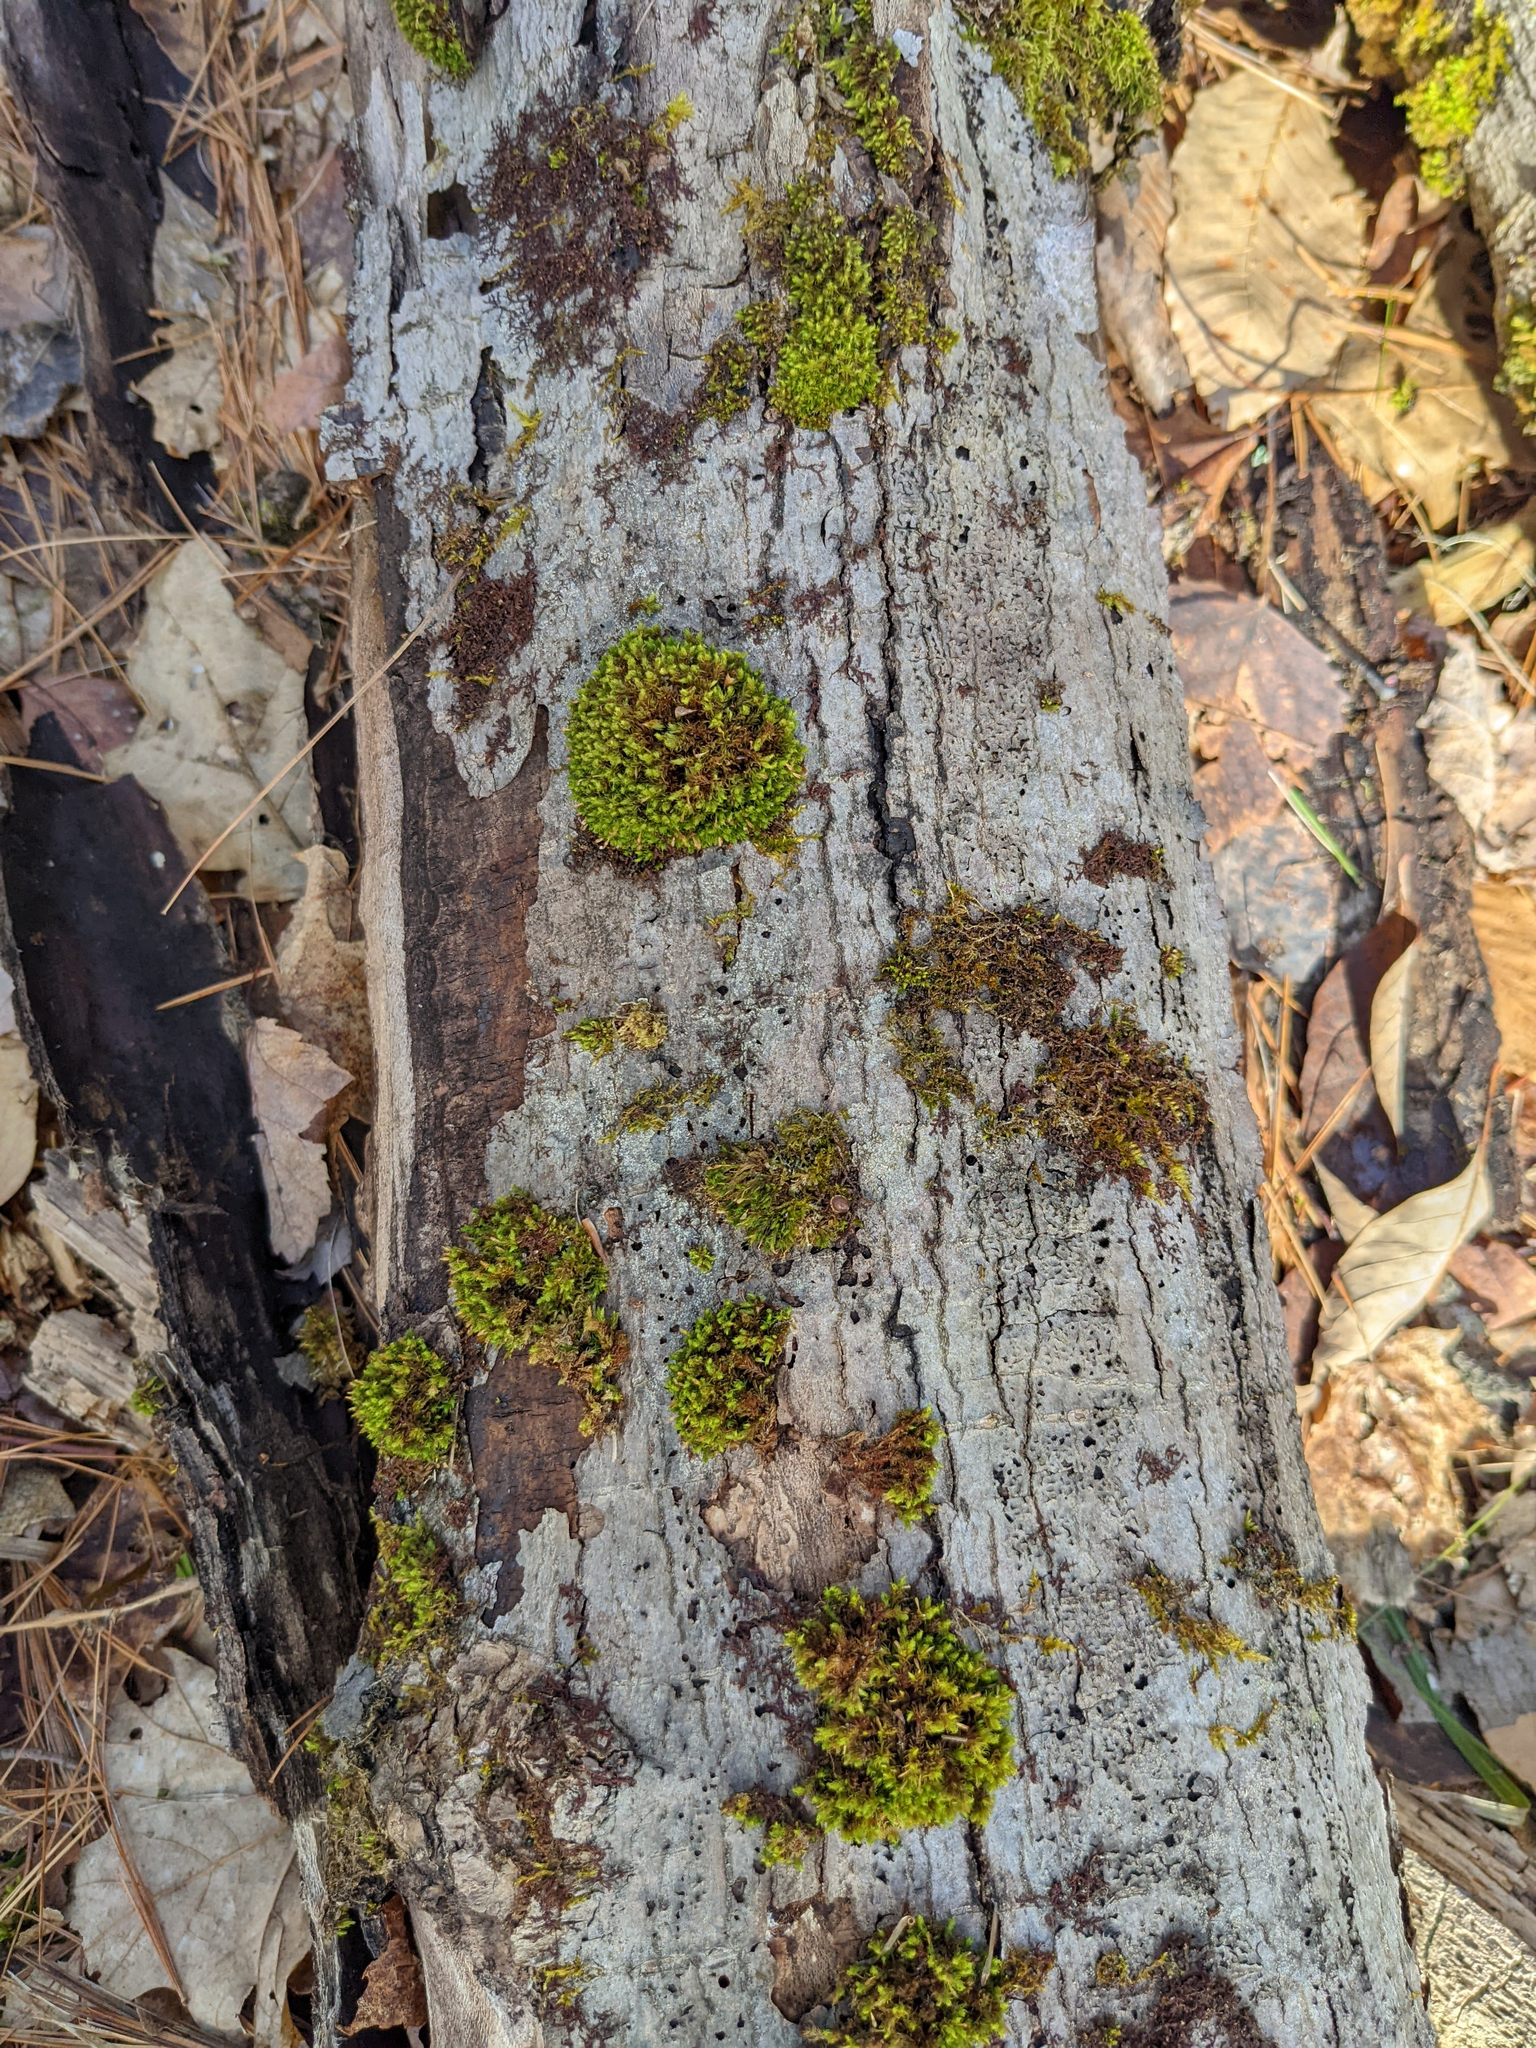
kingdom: Plantae
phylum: Bryophyta
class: Bryopsida
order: Orthotrichales
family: Orthotrichaceae
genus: Ulota
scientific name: Ulota crispa
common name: Crisped pincushion moss
